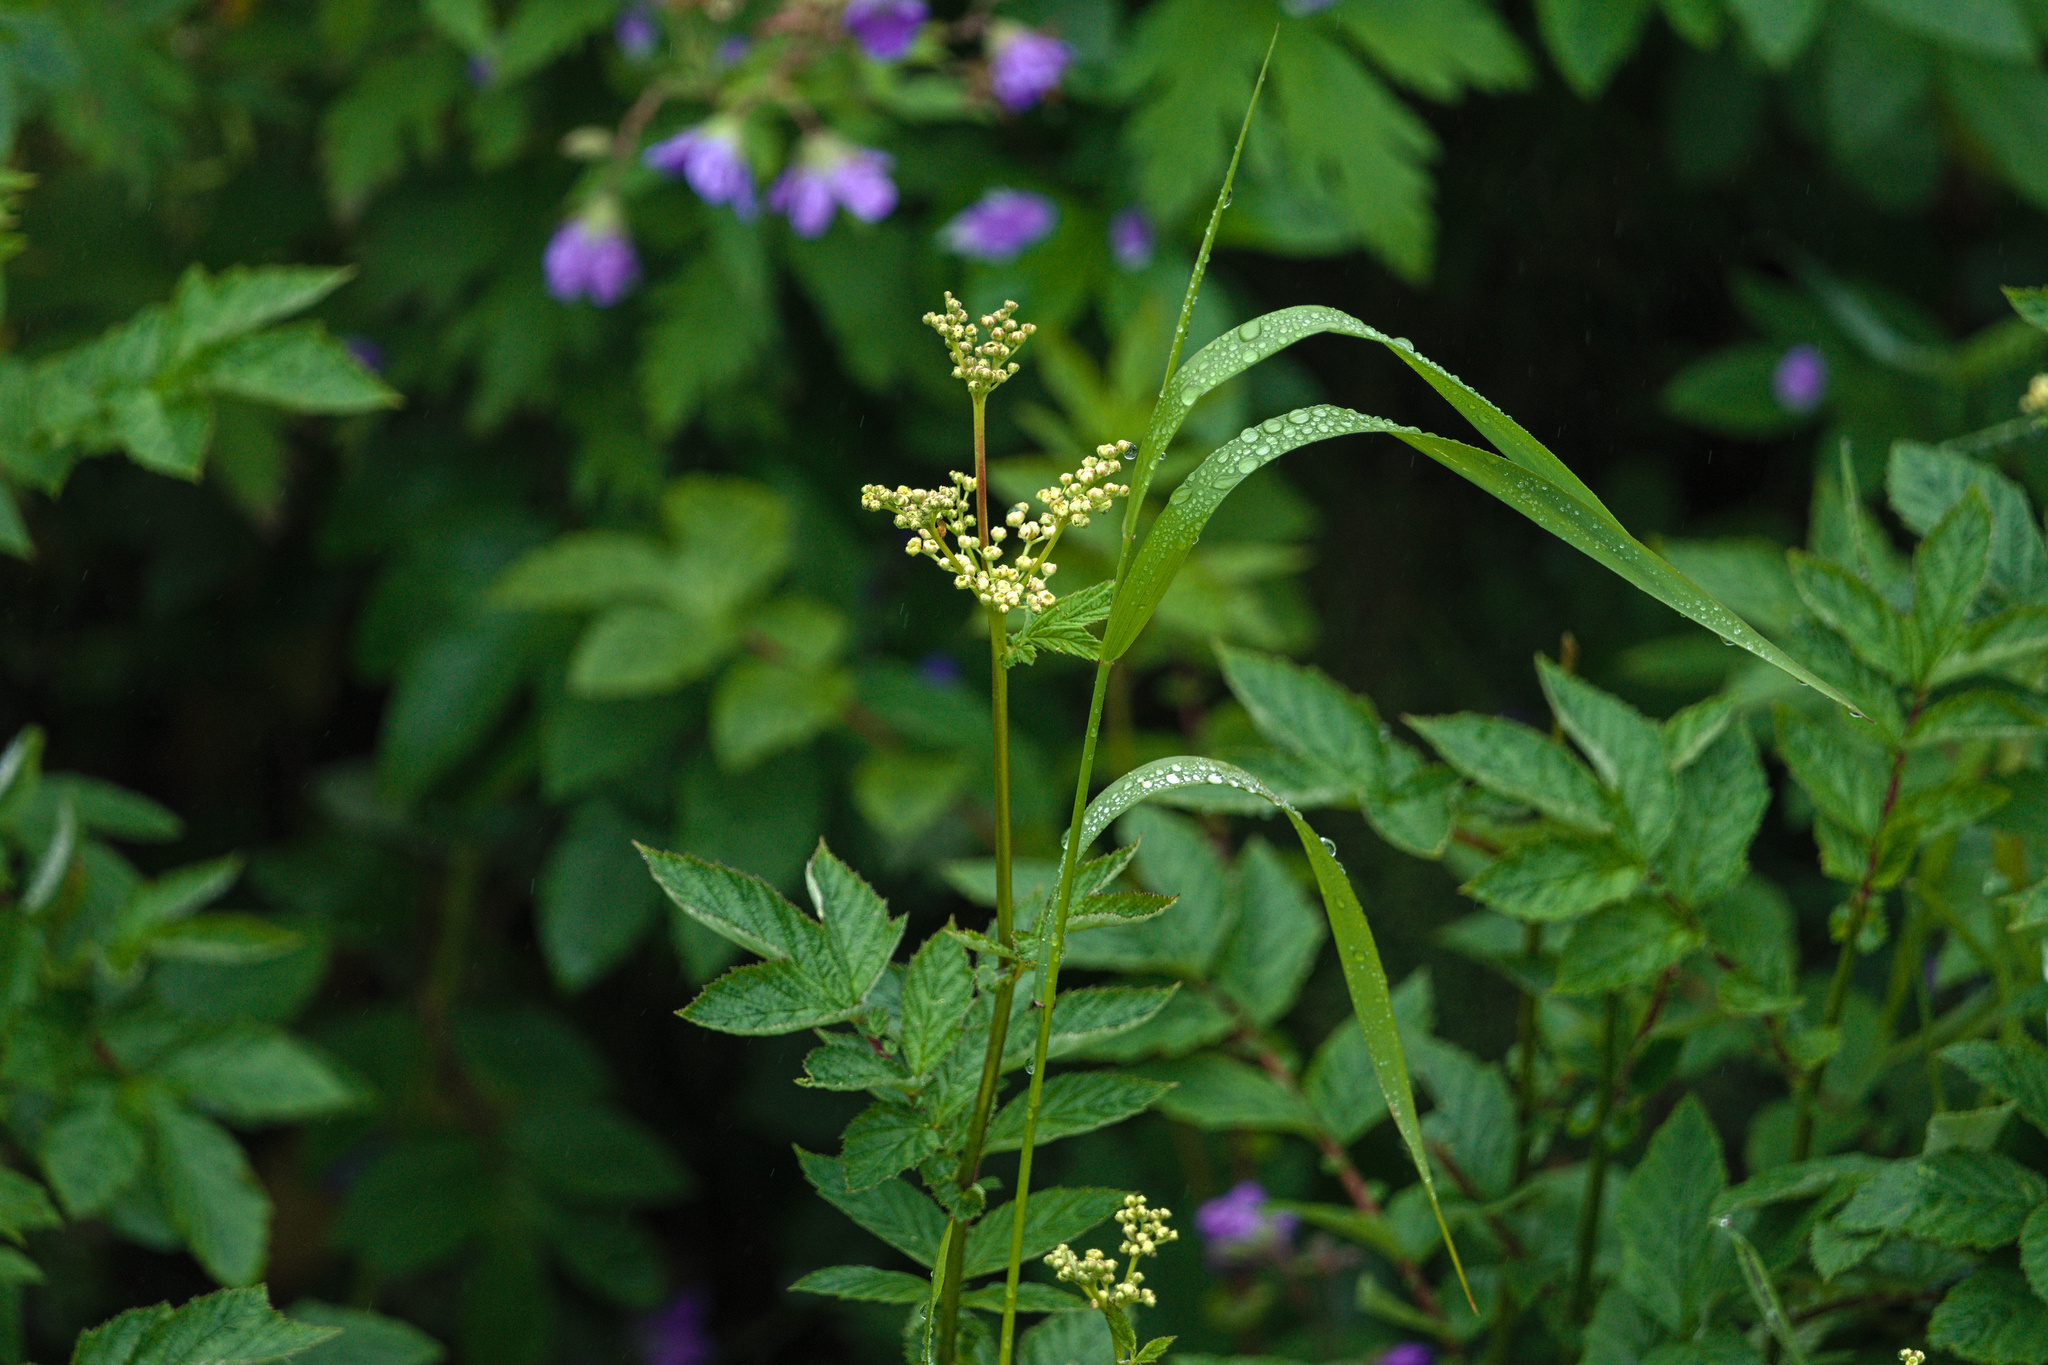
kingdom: Plantae
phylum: Tracheophyta
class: Magnoliopsida
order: Rosales
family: Rosaceae
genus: Filipendula
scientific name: Filipendula ulmaria
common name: Meadowsweet
